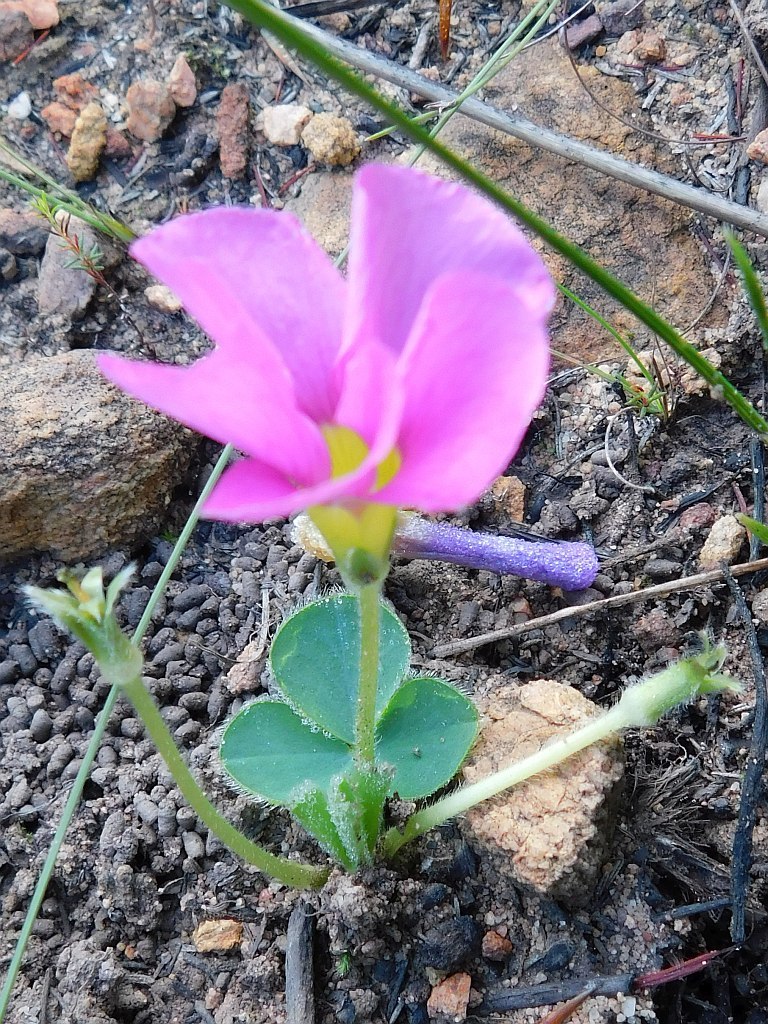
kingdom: Plantae
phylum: Tracheophyta
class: Magnoliopsida
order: Oxalidales
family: Oxalidaceae
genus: Oxalis
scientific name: Oxalis purpurea
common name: Purple woodsorrel
